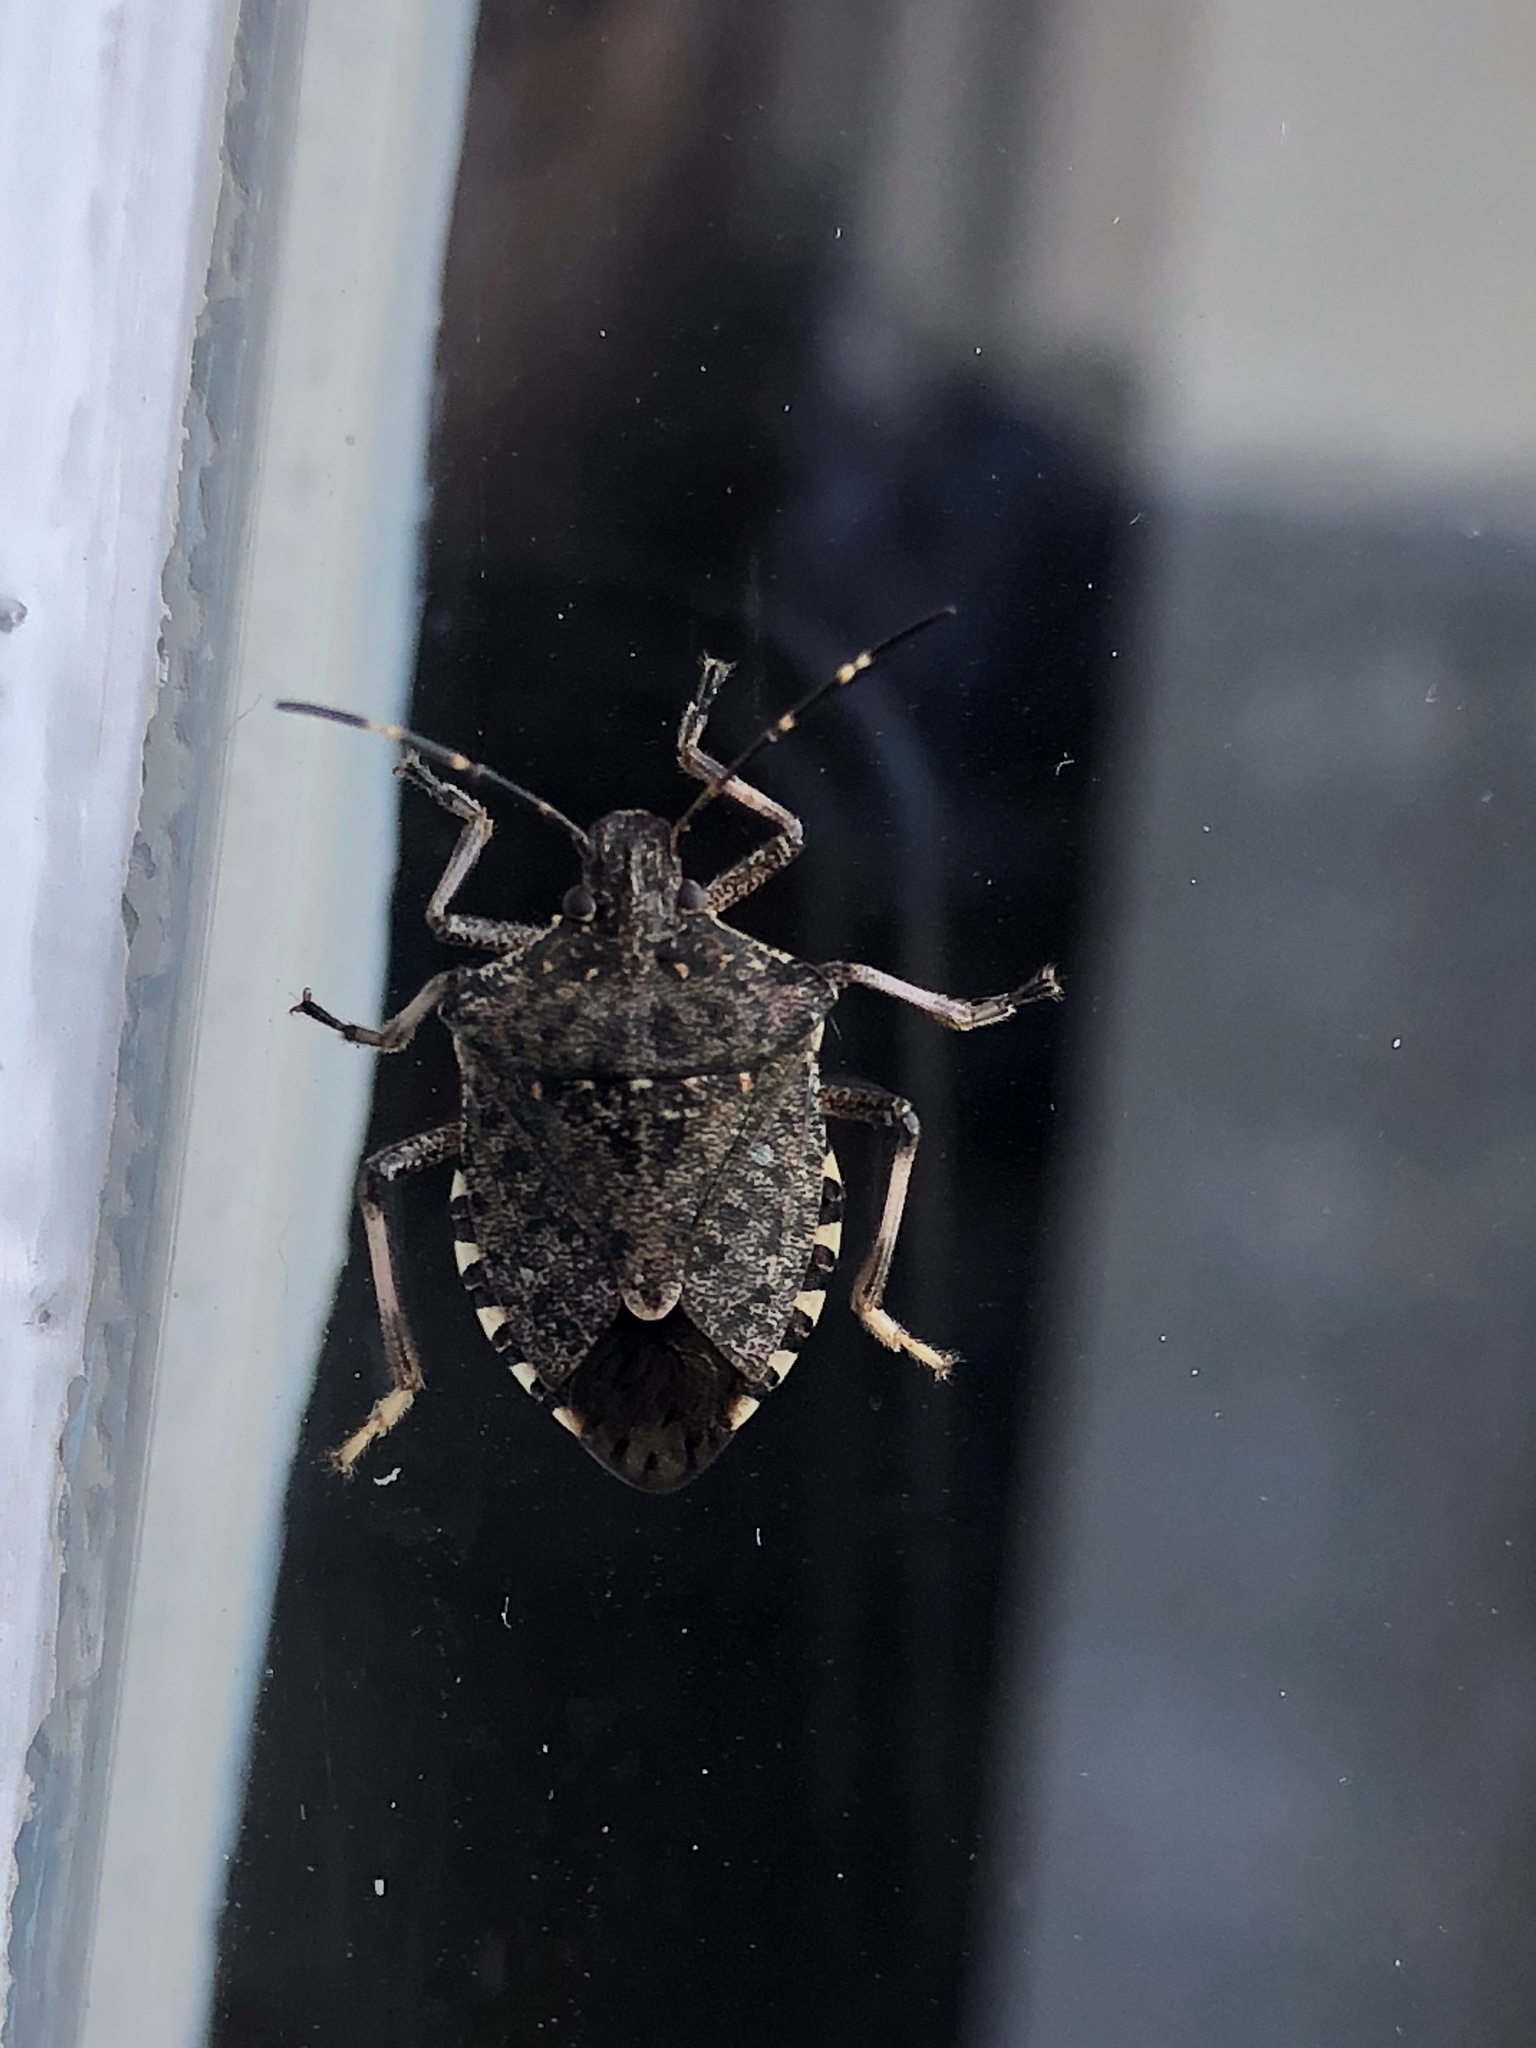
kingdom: Animalia
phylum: Arthropoda
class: Insecta
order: Hemiptera
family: Pentatomidae
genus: Halyomorpha
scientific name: Halyomorpha halys
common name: Brown marmorated stink bug
